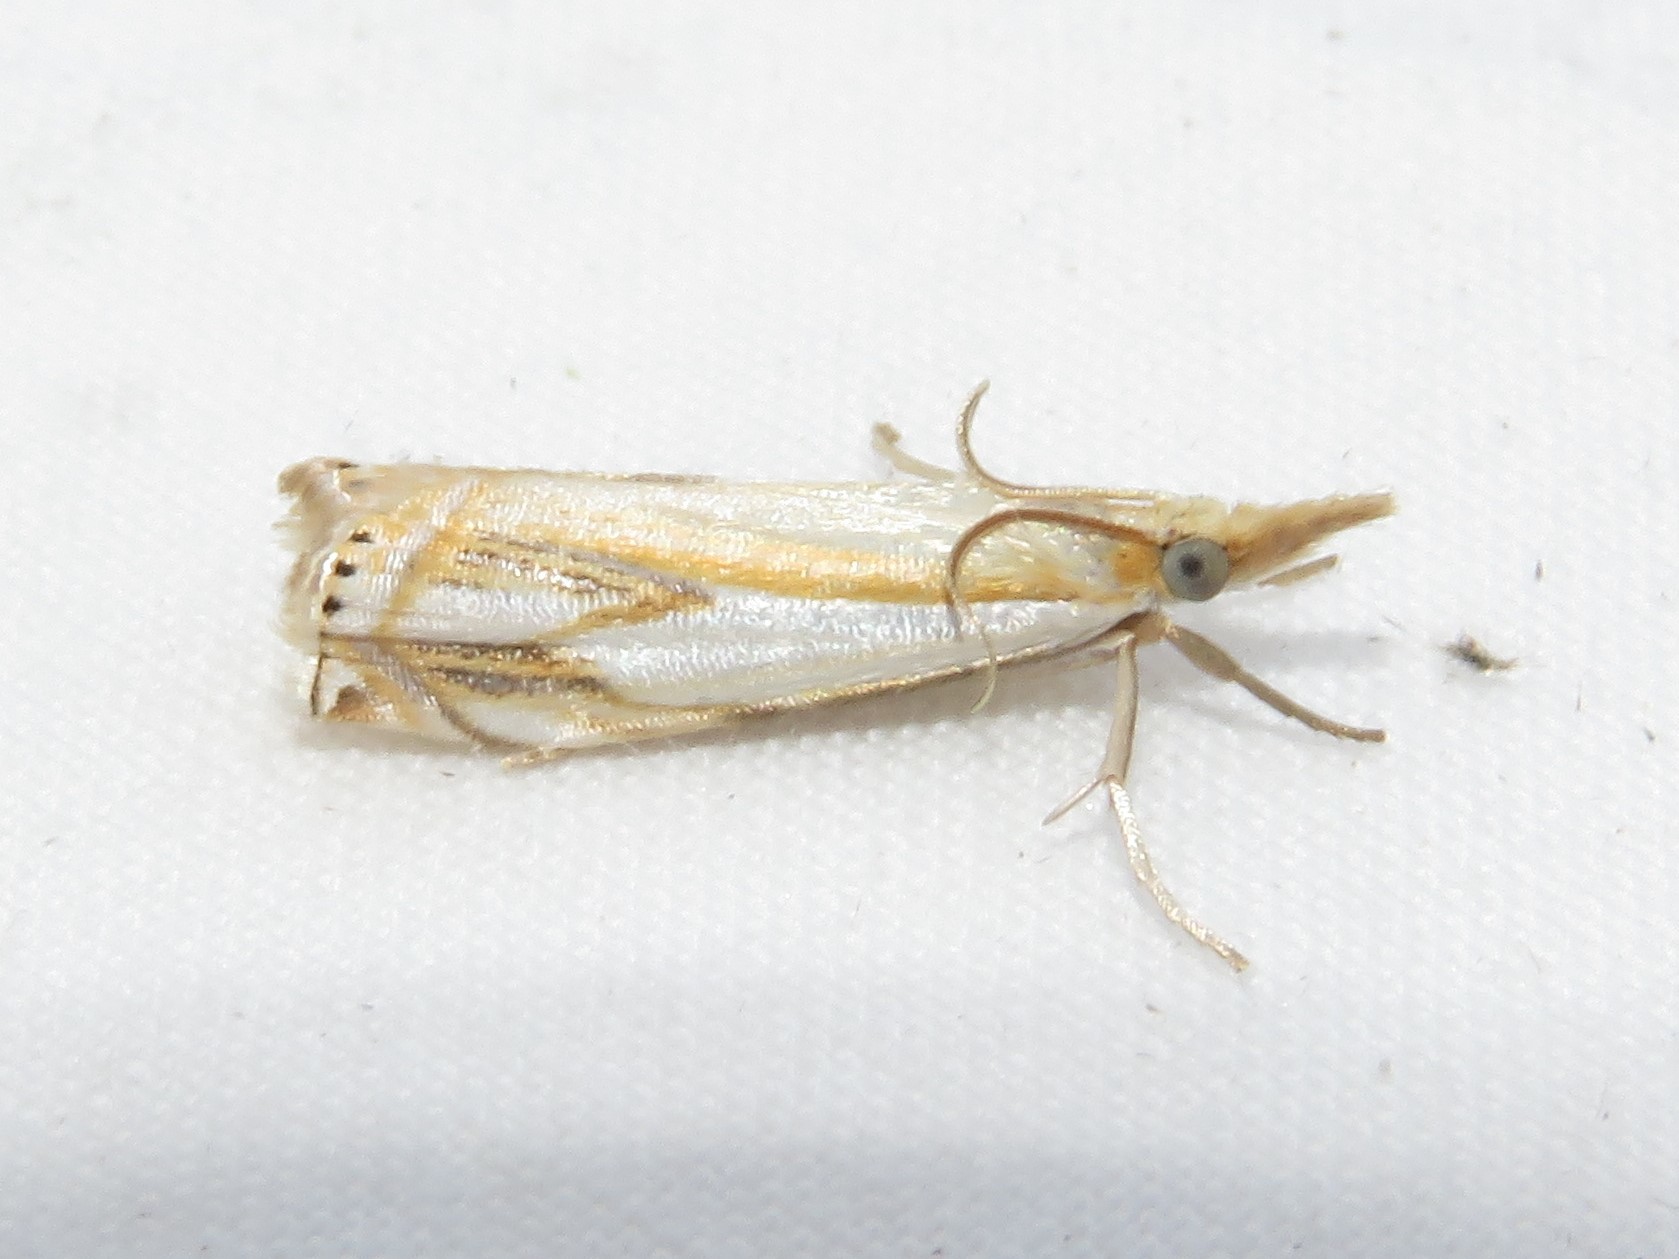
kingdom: Animalia
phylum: Arthropoda
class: Insecta
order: Lepidoptera
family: Crambidae
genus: Crambus
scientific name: Crambus agitatellus
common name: Double-banded grass-veneer
